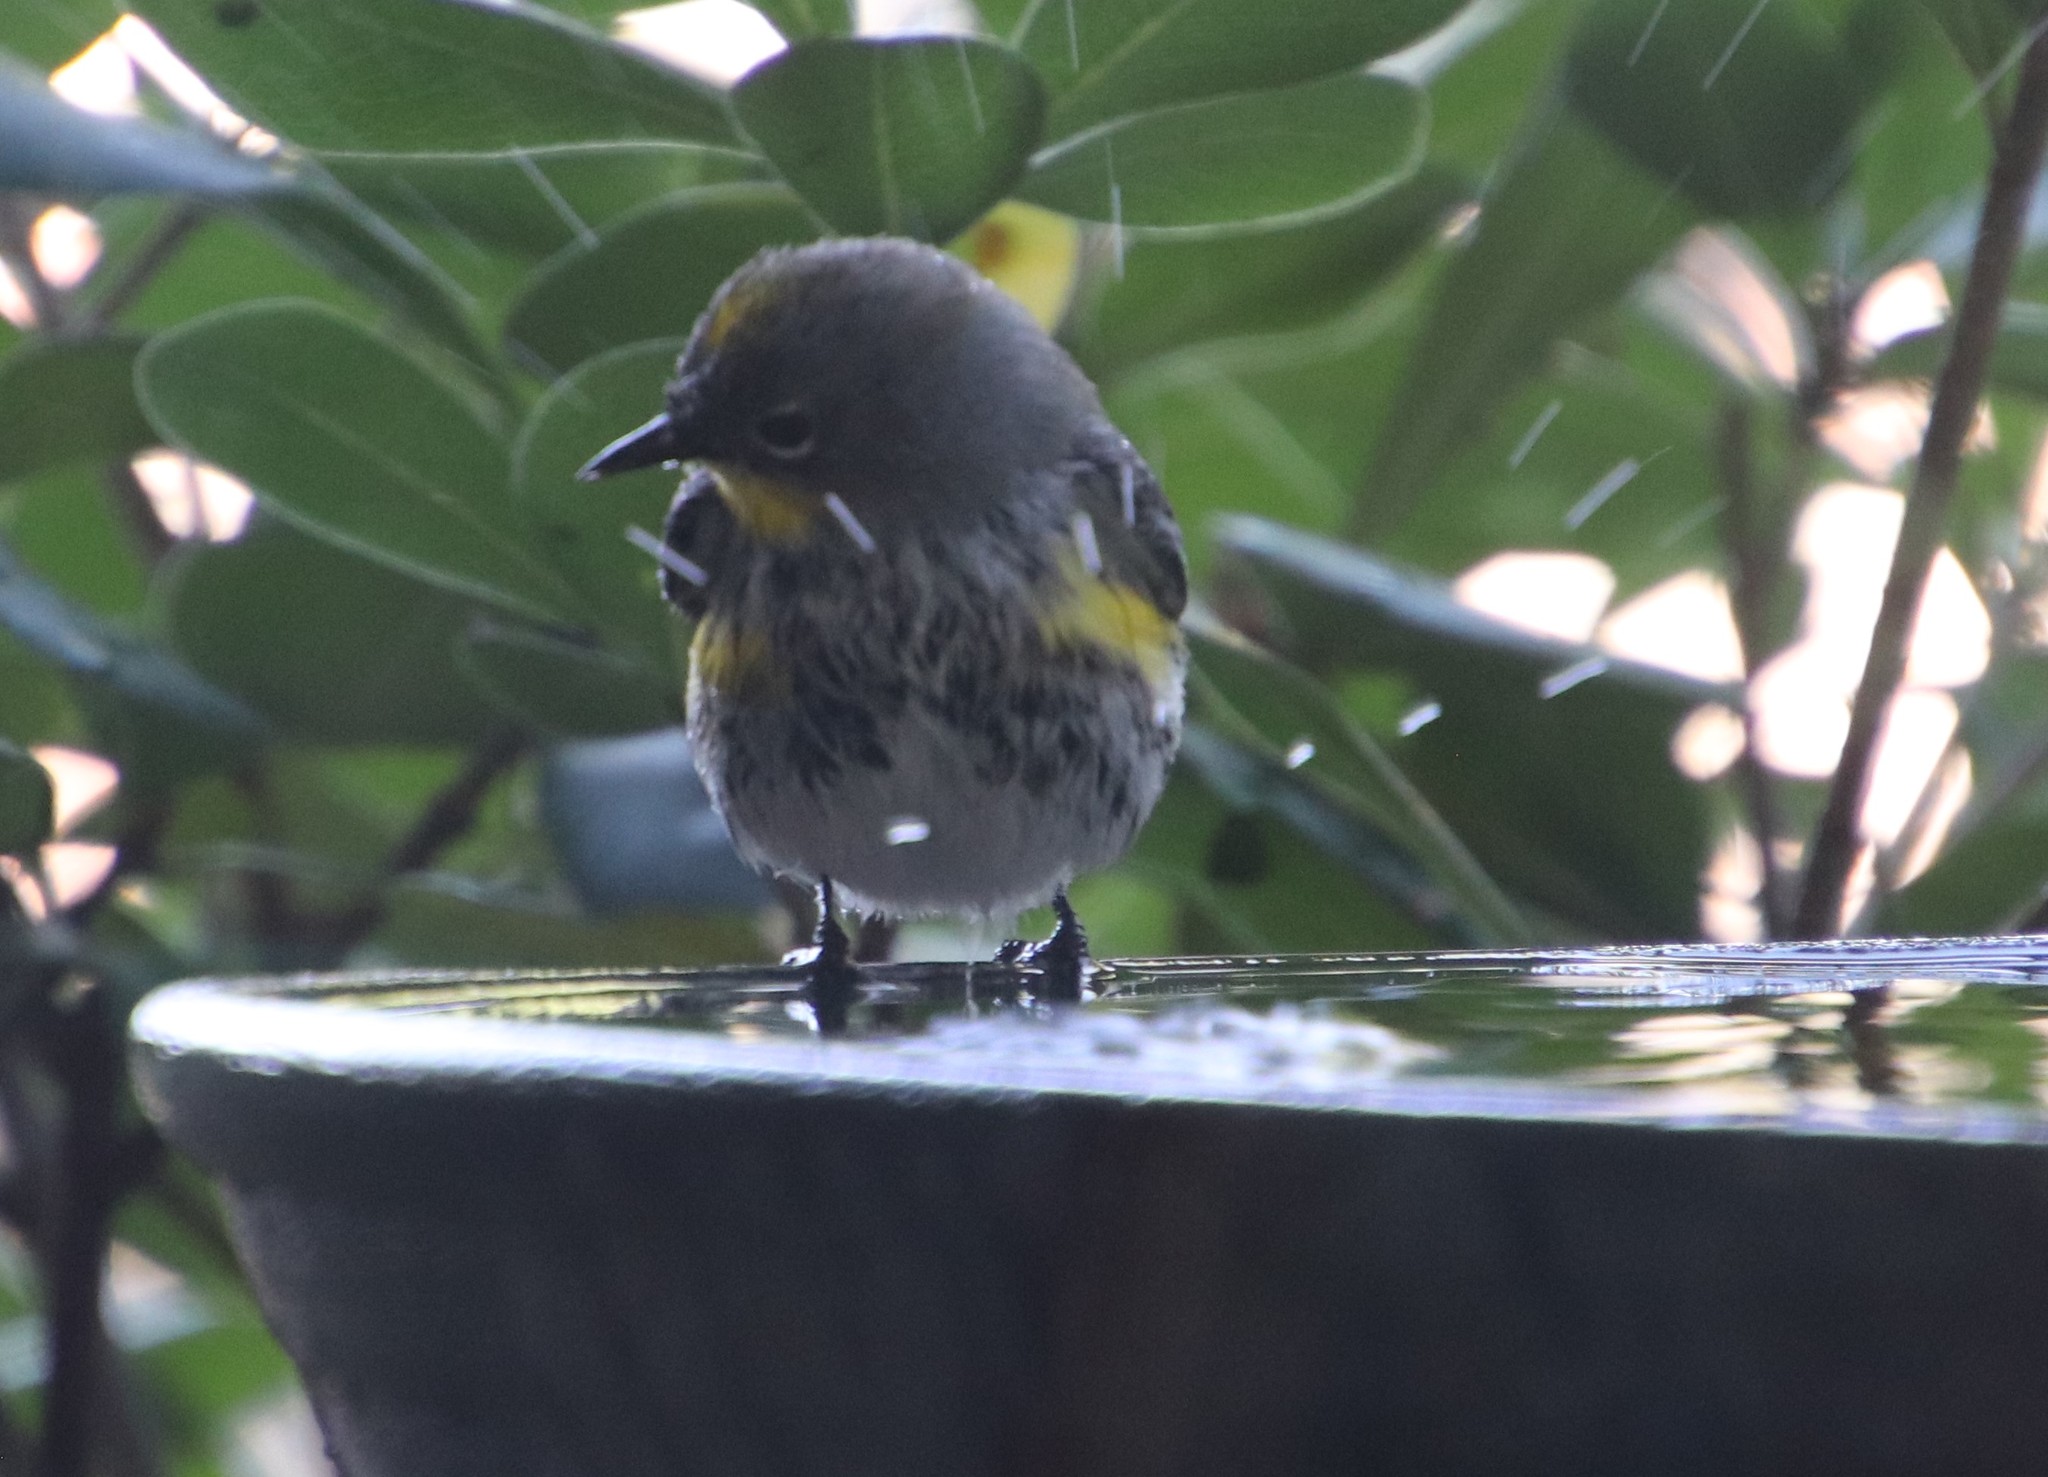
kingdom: Animalia
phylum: Chordata
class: Aves
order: Passeriformes
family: Parulidae
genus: Setophaga
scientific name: Setophaga auduboni
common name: Audubon's warbler
